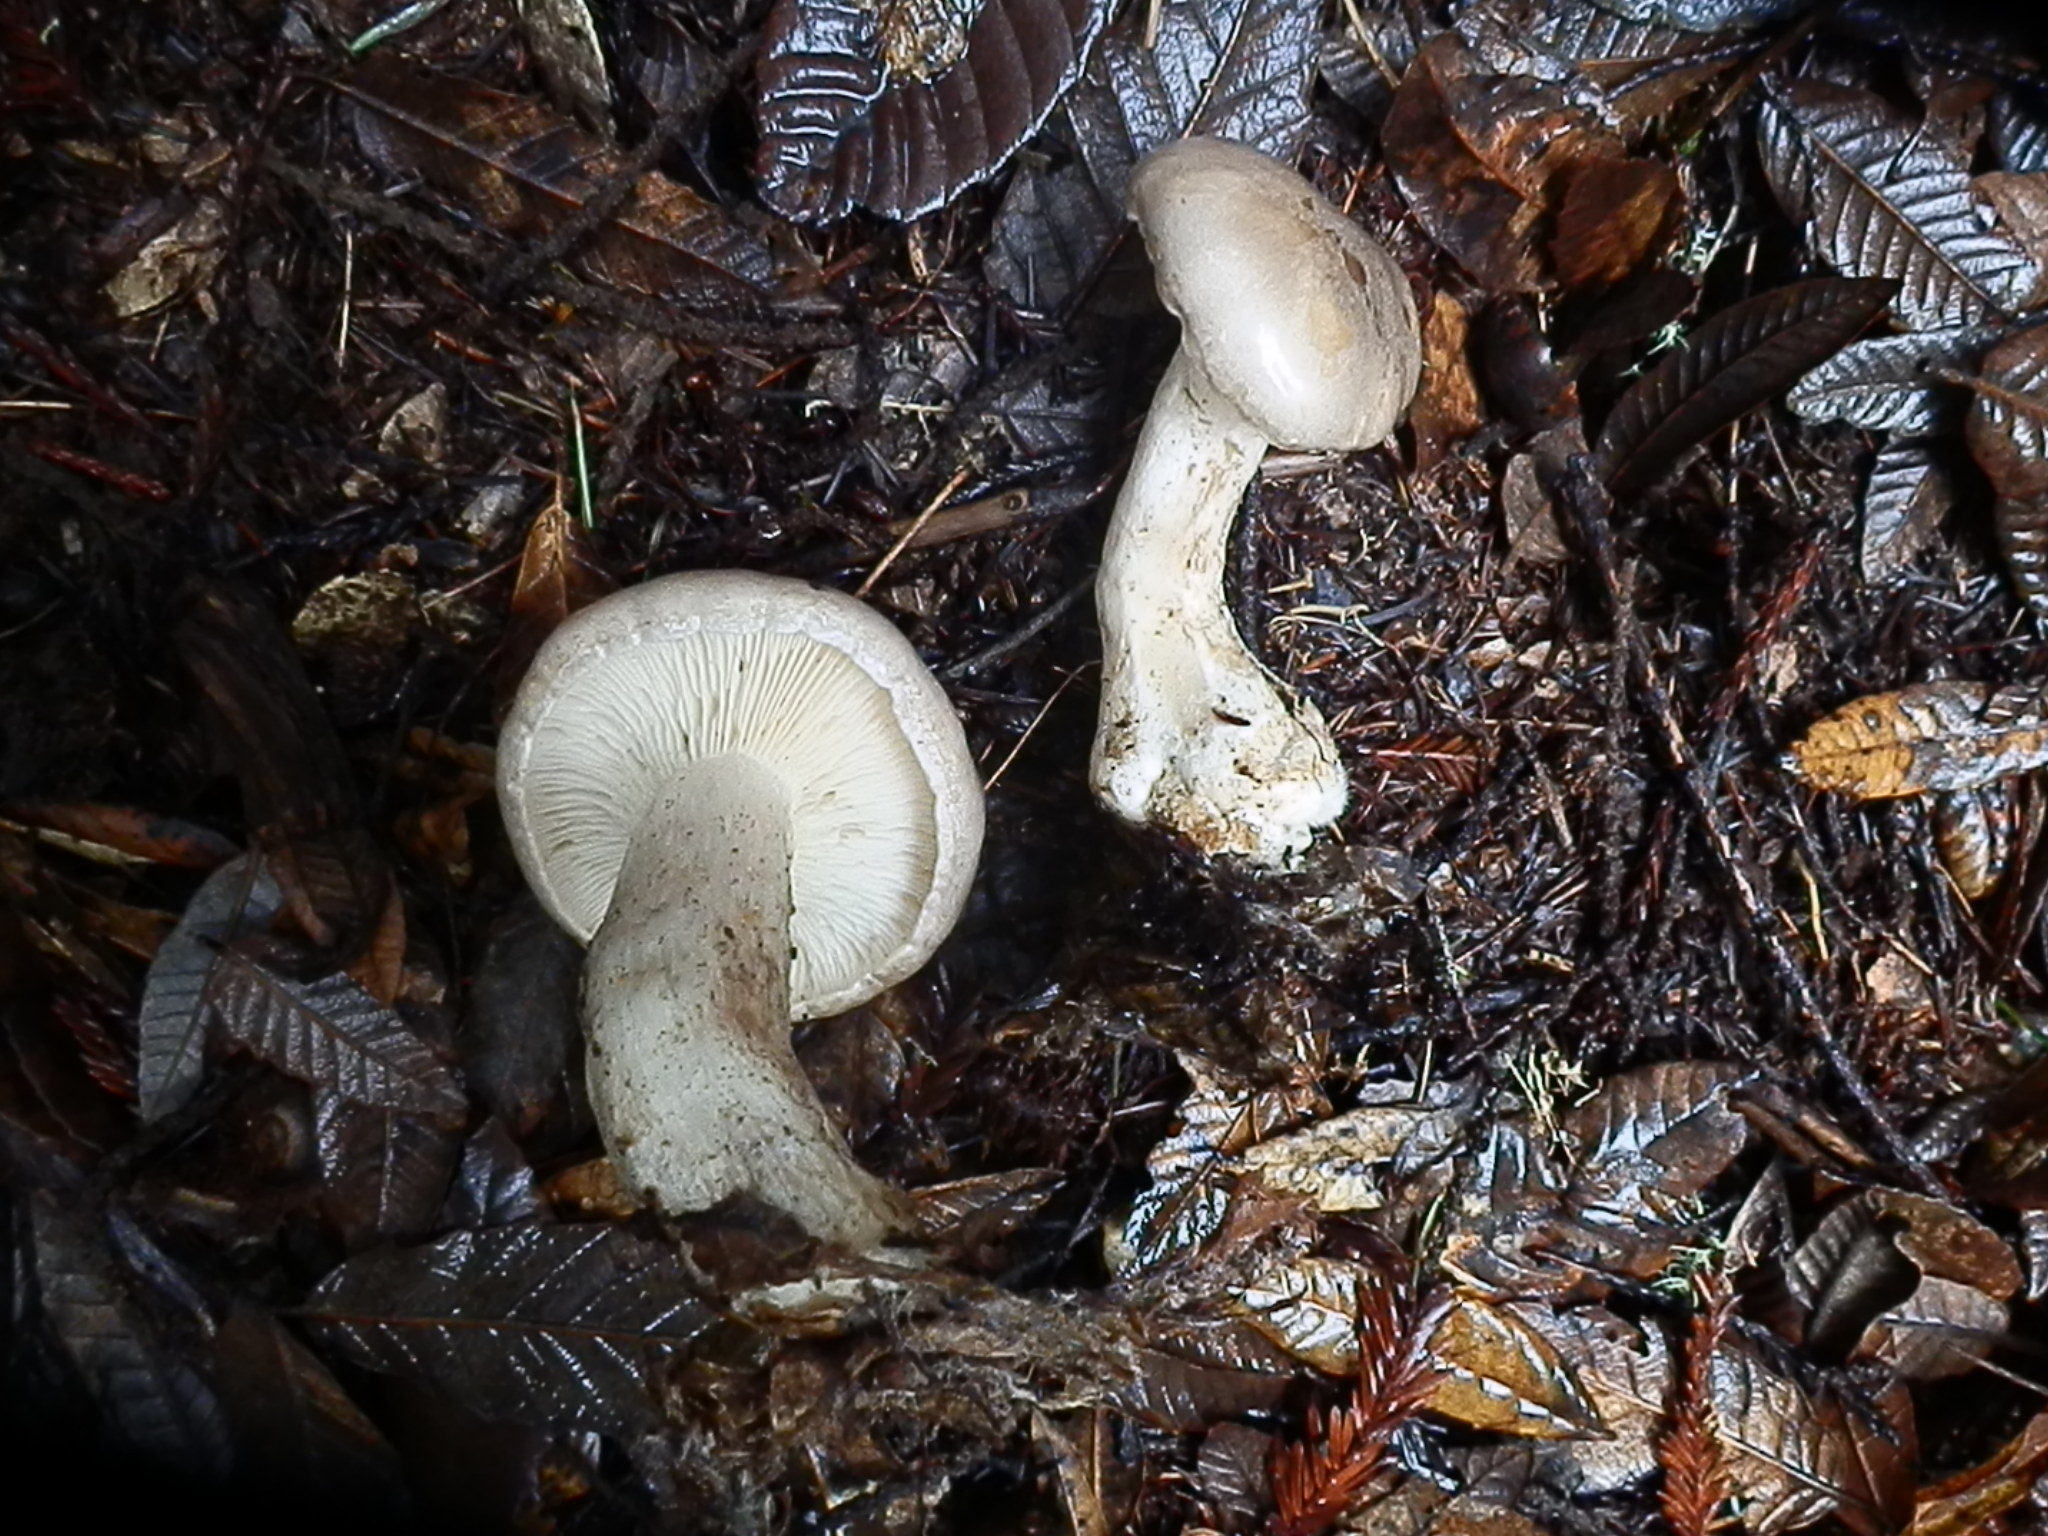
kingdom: Fungi
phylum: Basidiomycota
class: Agaricomycetes
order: Agaricales
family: Tricholomataceae
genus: Clitocybe
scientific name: Clitocybe nebularis
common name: Clouded agaric
